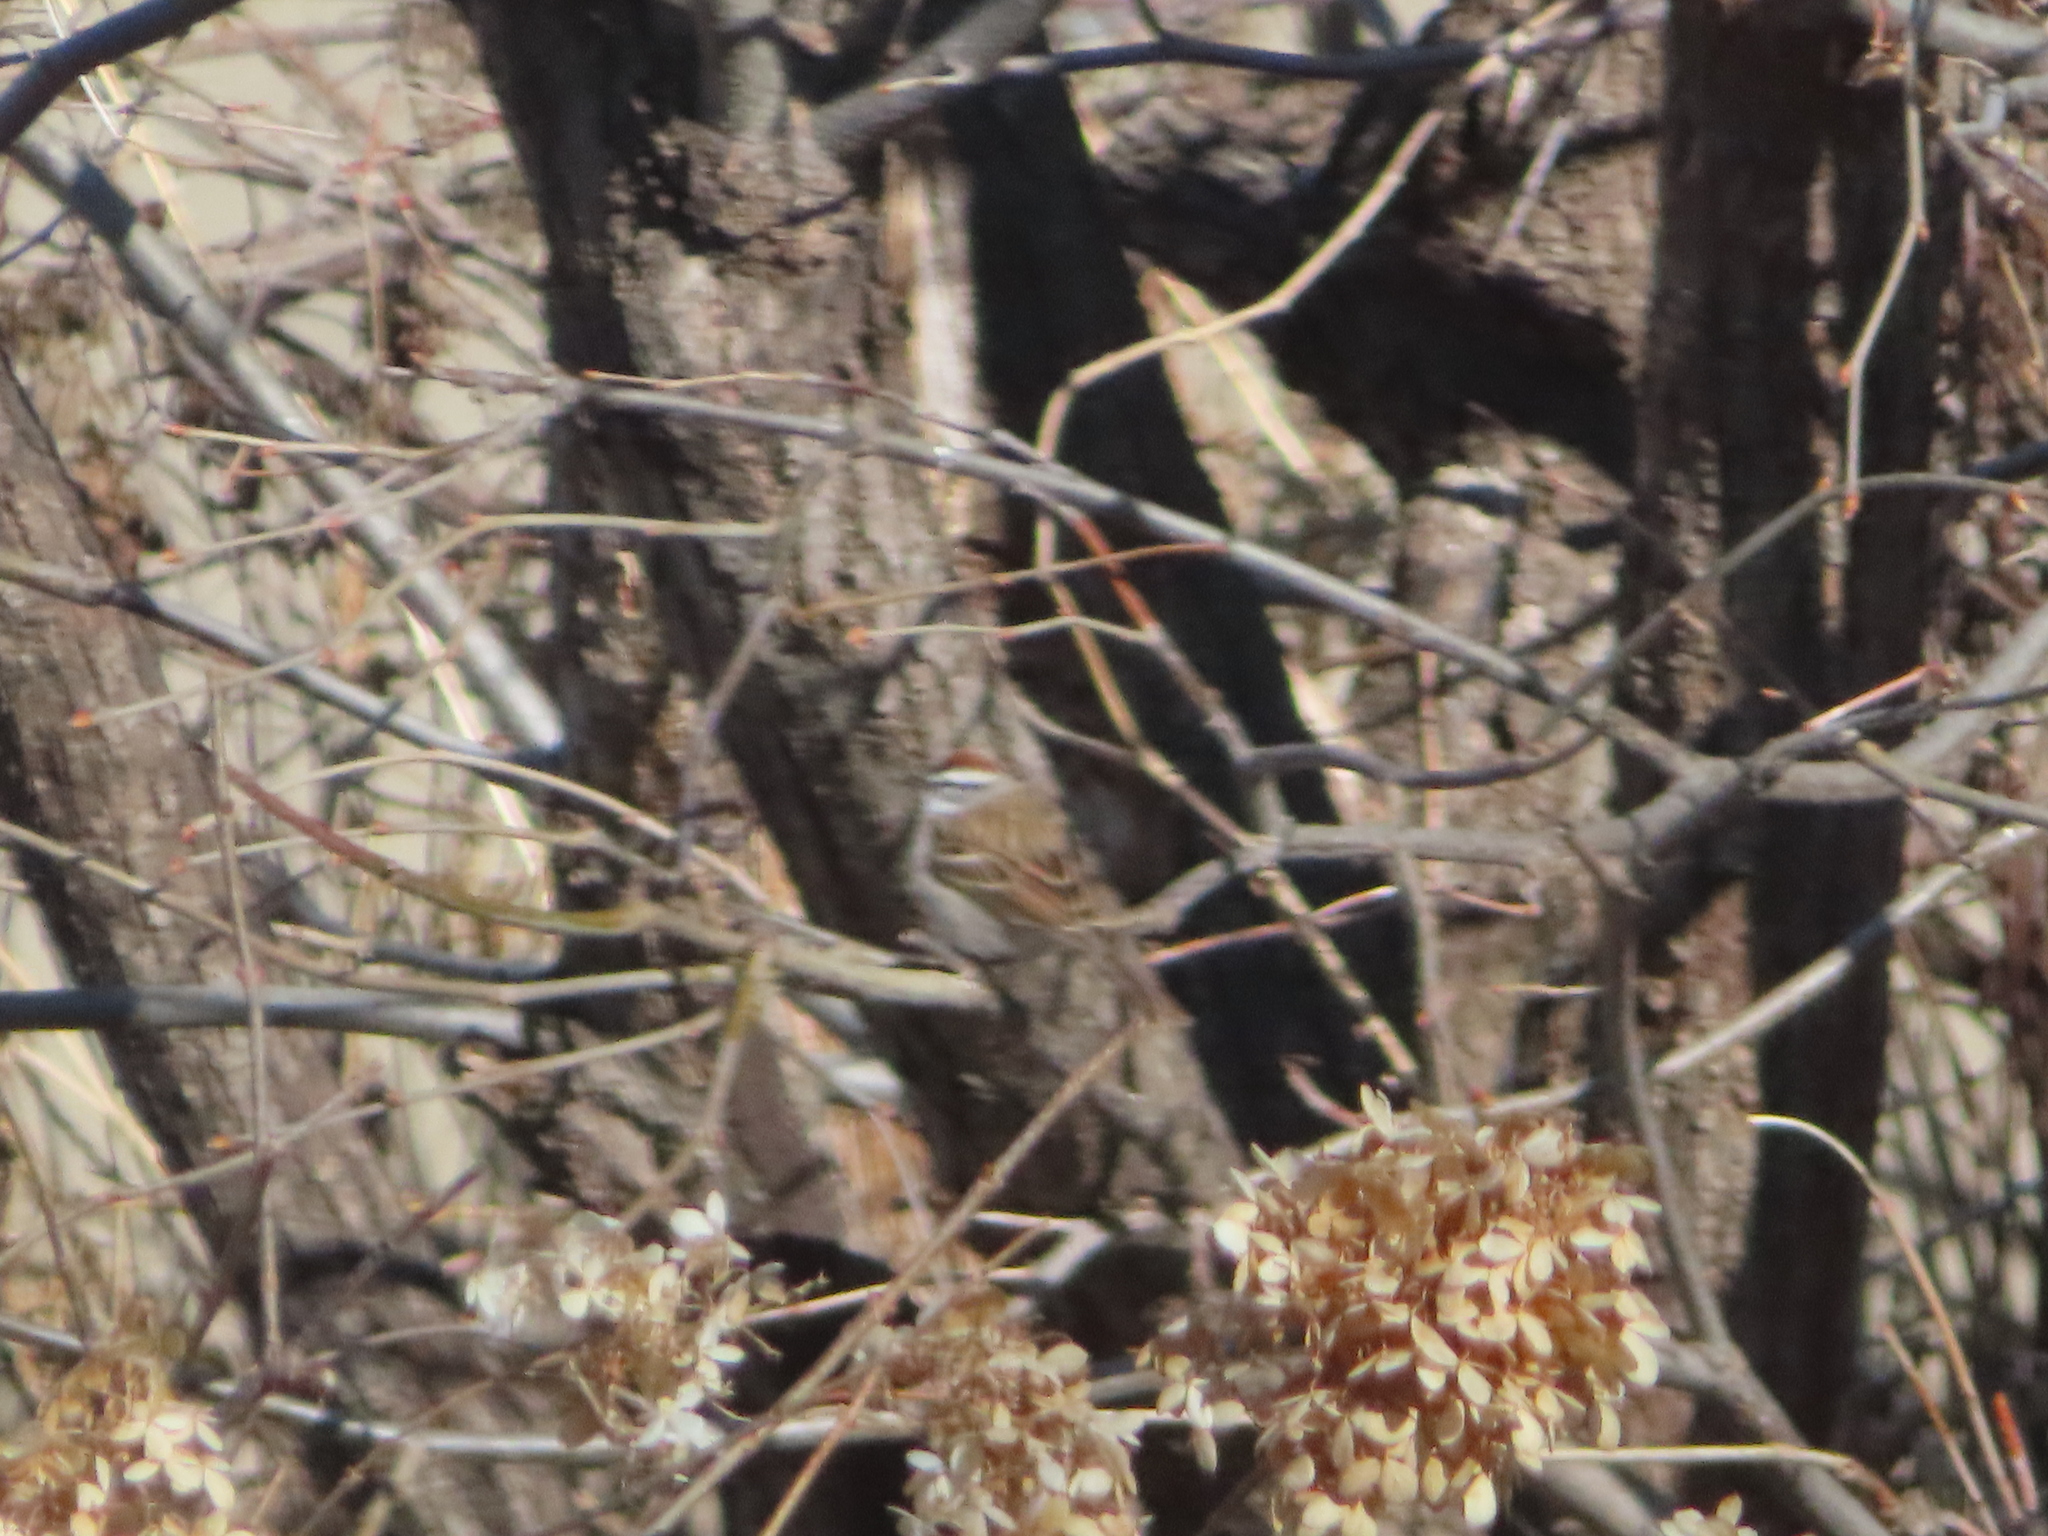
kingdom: Animalia
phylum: Chordata
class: Aves
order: Passeriformes
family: Passerellidae
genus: Spizella
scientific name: Spizella passerina
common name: Chipping sparrow
